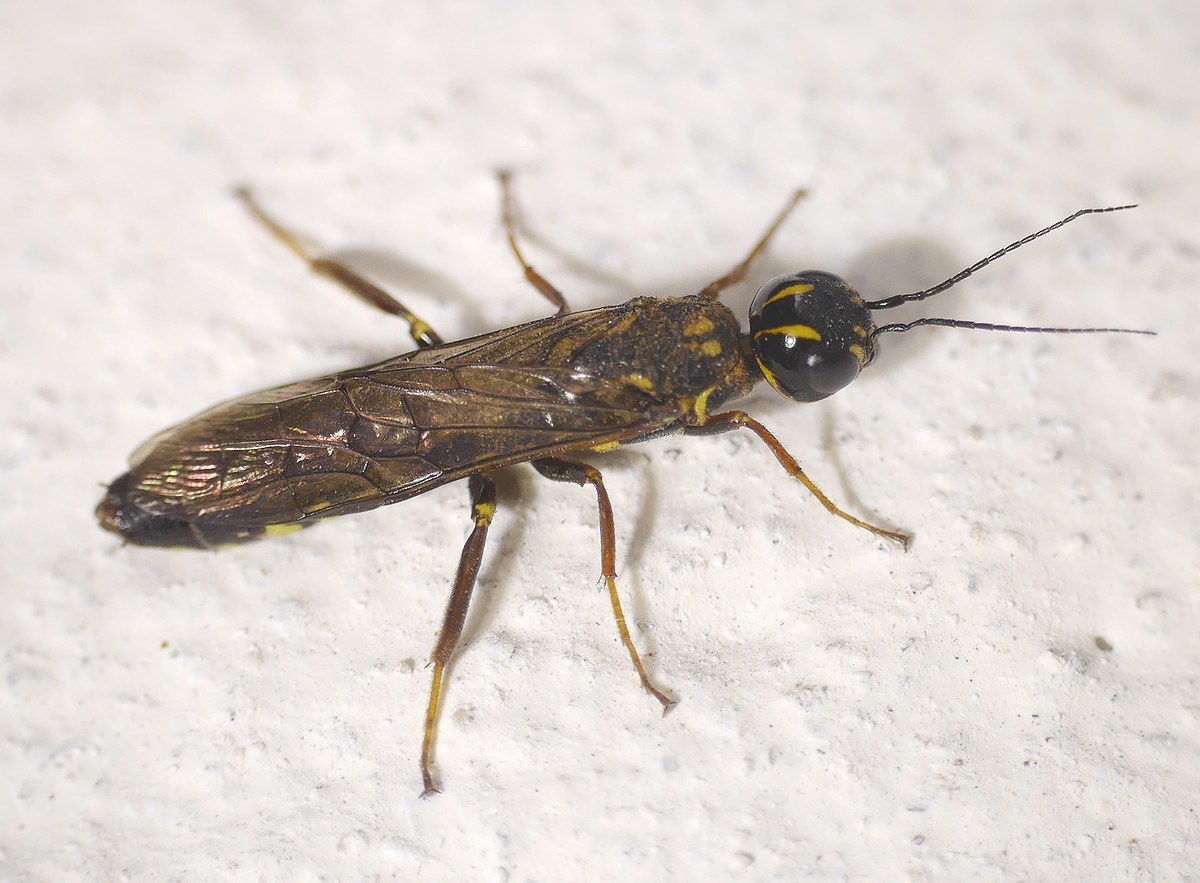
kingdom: Animalia
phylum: Arthropoda
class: Insecta
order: Hymenoptera
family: Xiphydriidae
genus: Xiphydria
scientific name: Xiphydria longicollis
